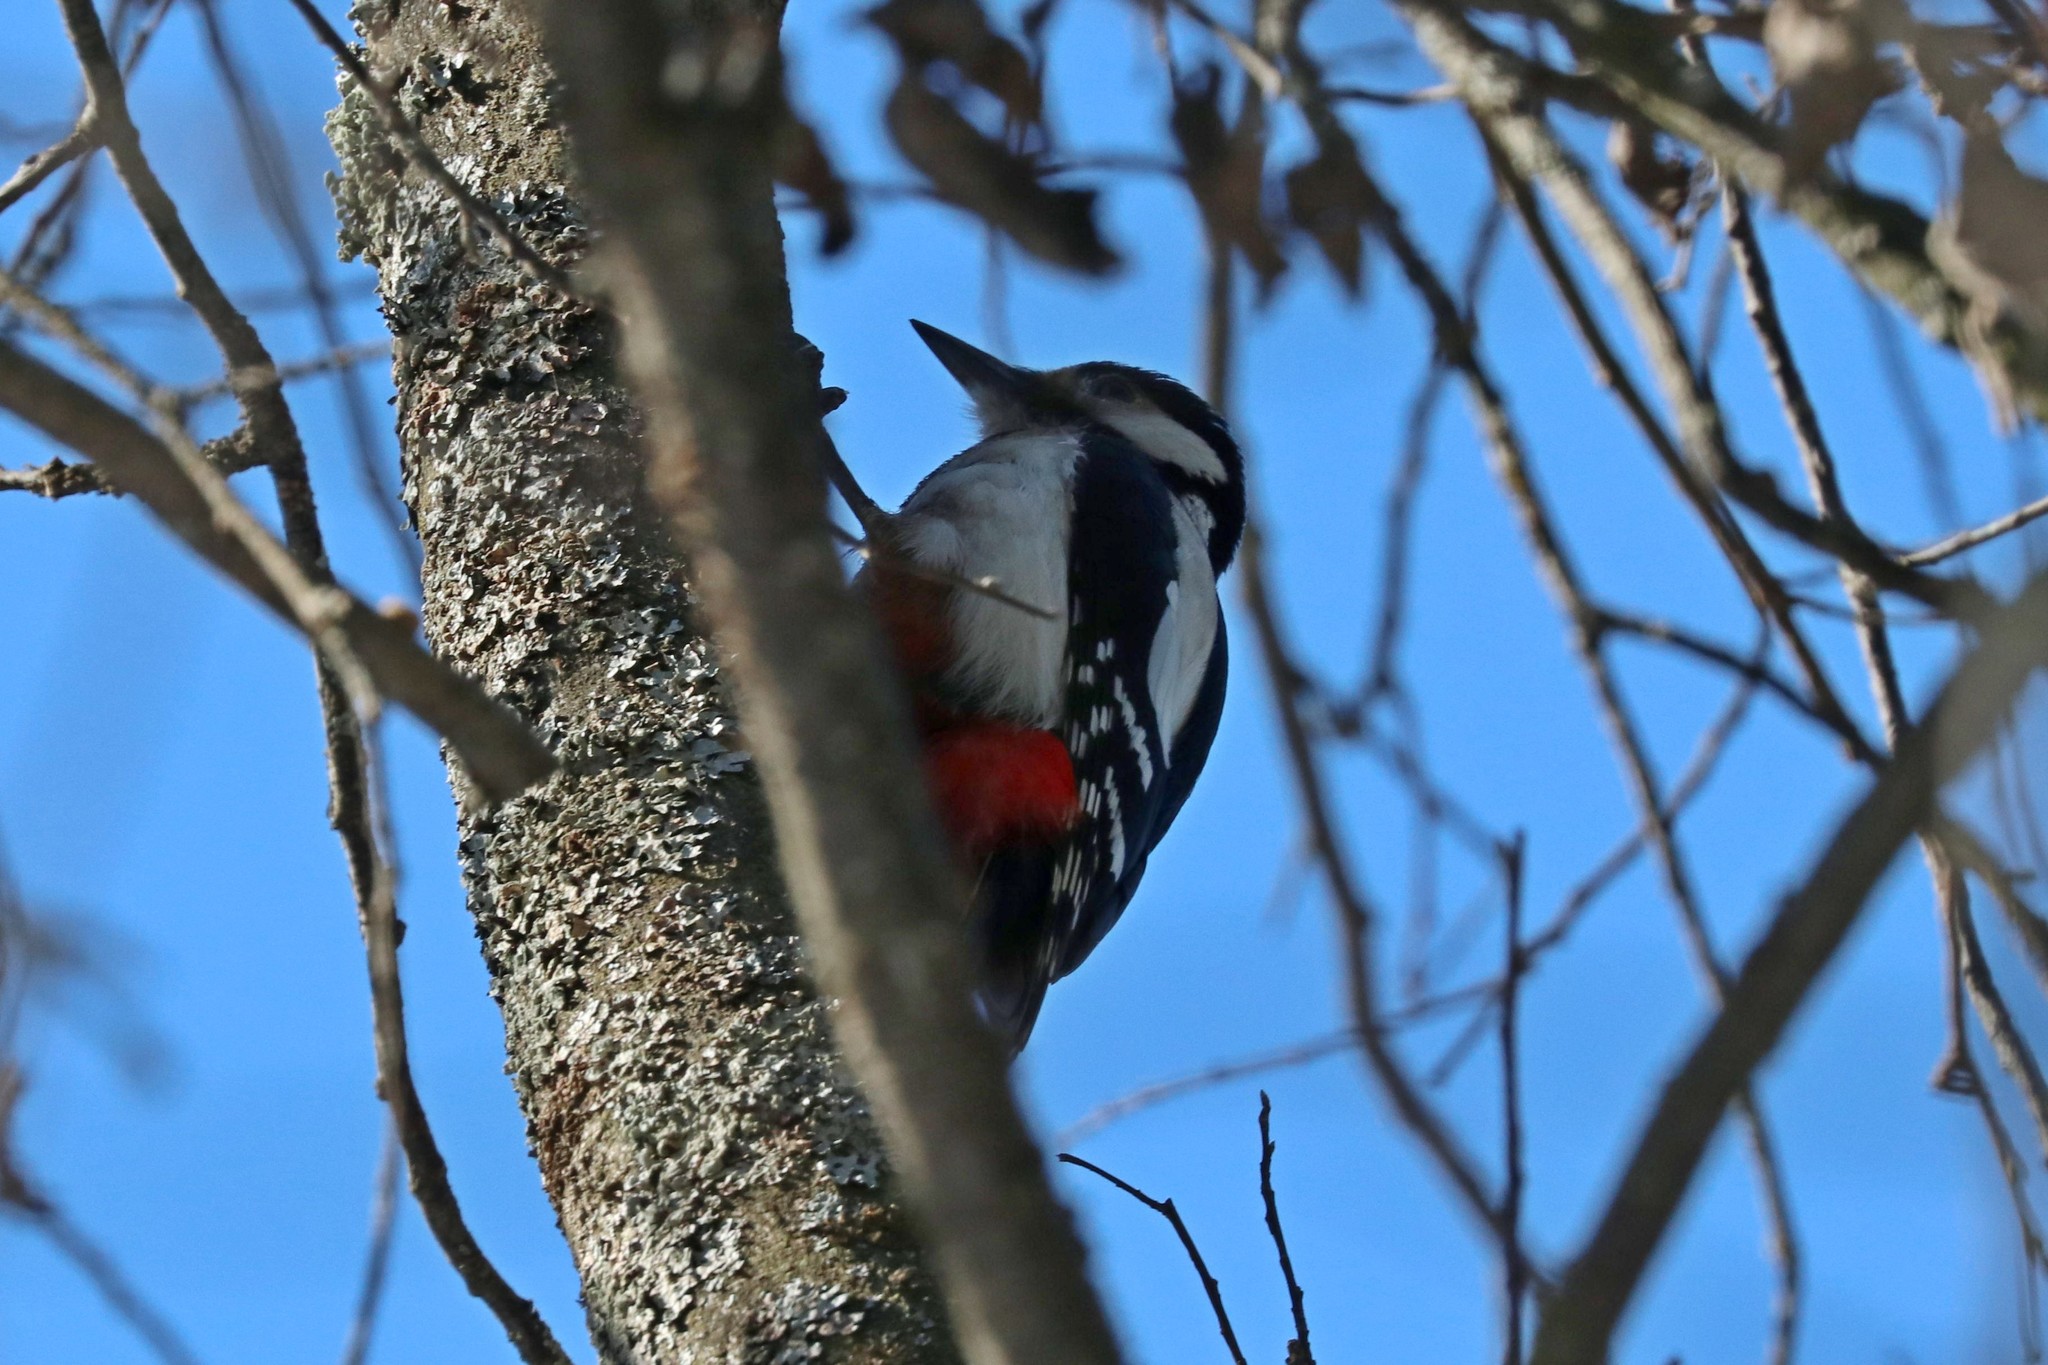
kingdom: Animalia
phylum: Chordata
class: Aves
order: Piciformes
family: Picidae
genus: Dendrocopos
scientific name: Dendrocopos major
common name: Great spotted woodpecker
